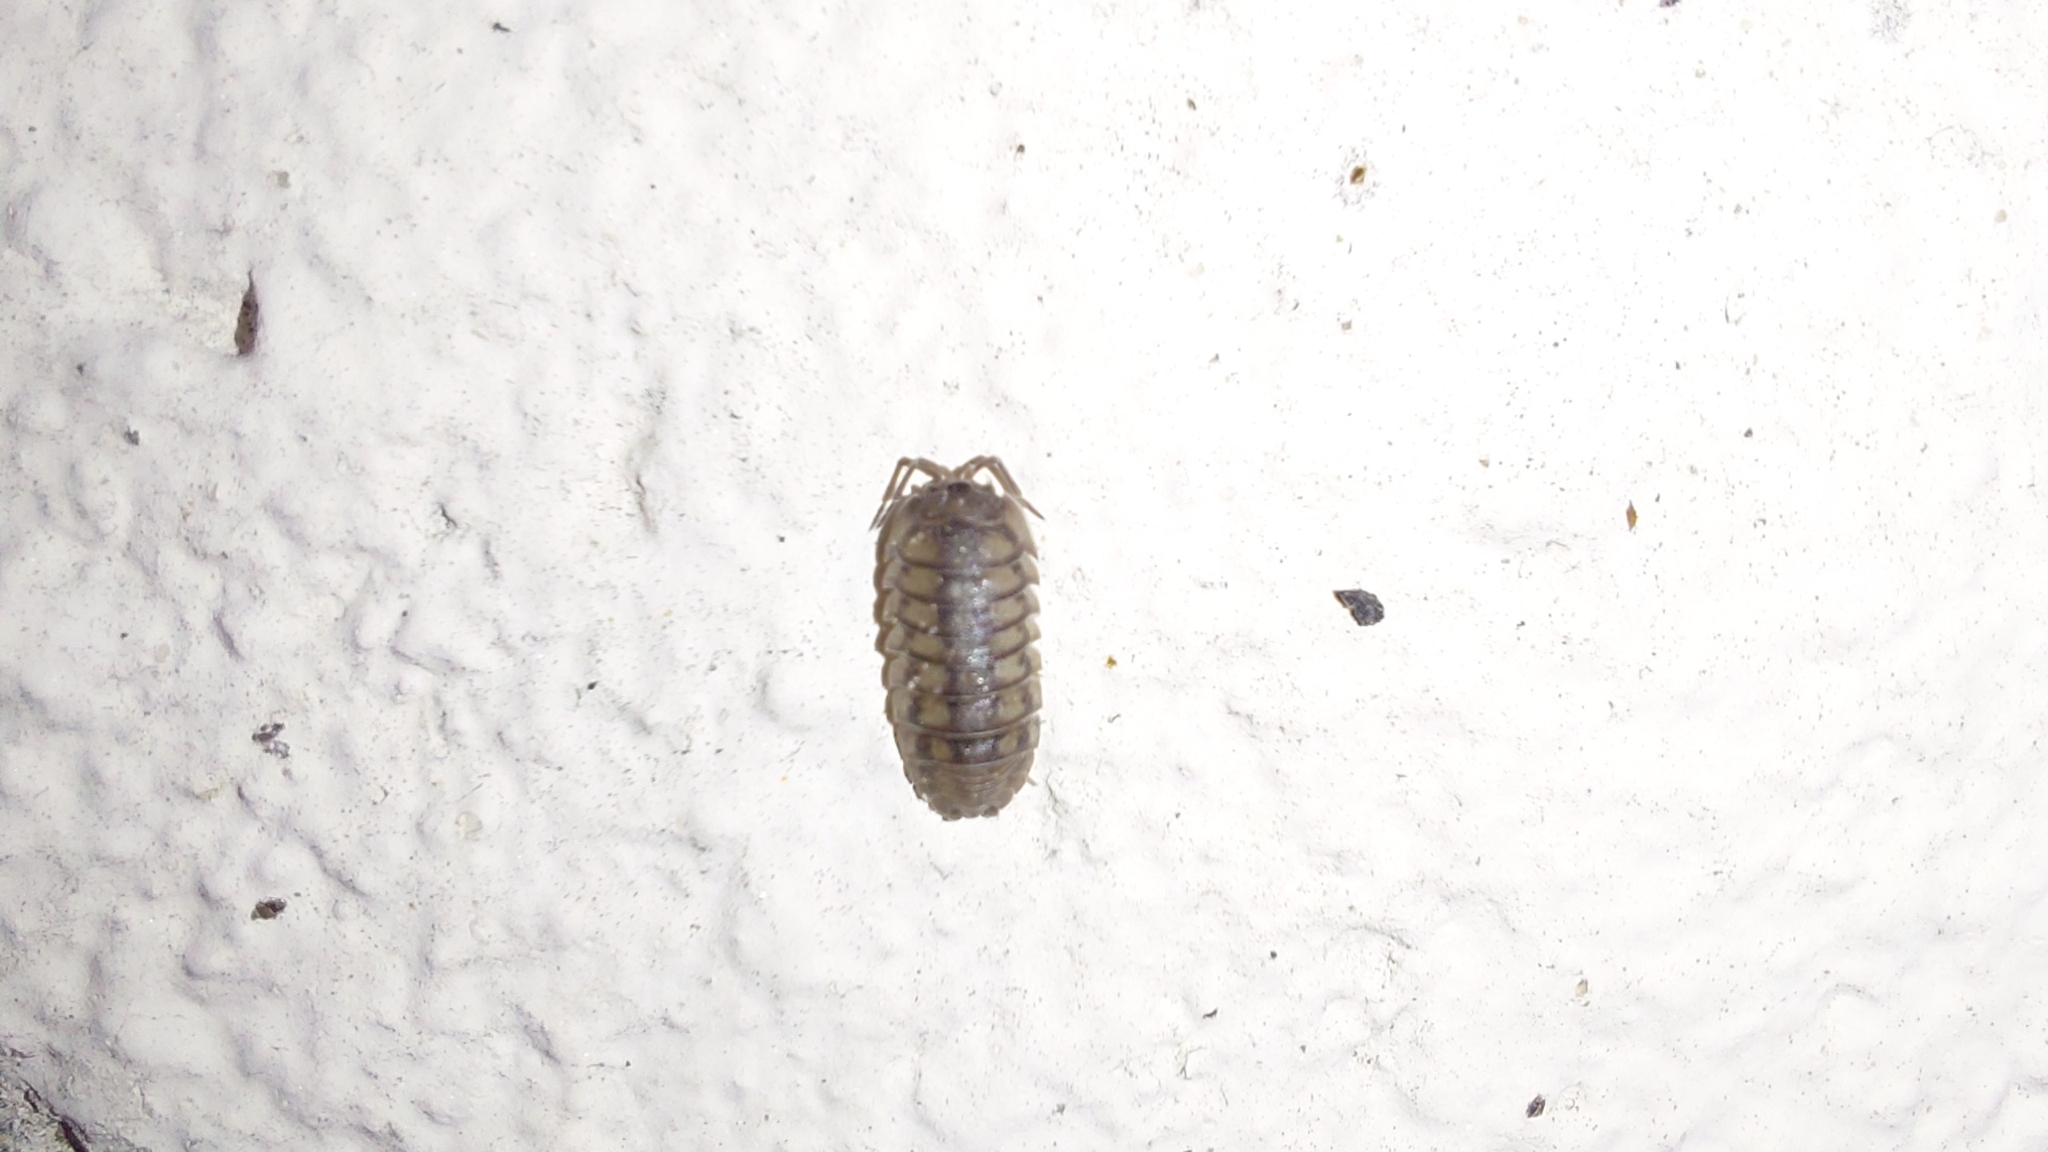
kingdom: Animalia
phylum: Arthropoda
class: Malacostraca
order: Isopoda
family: Armadillidiidae
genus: Armadillidium
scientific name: Armadillidium nasatum
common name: Isopod
